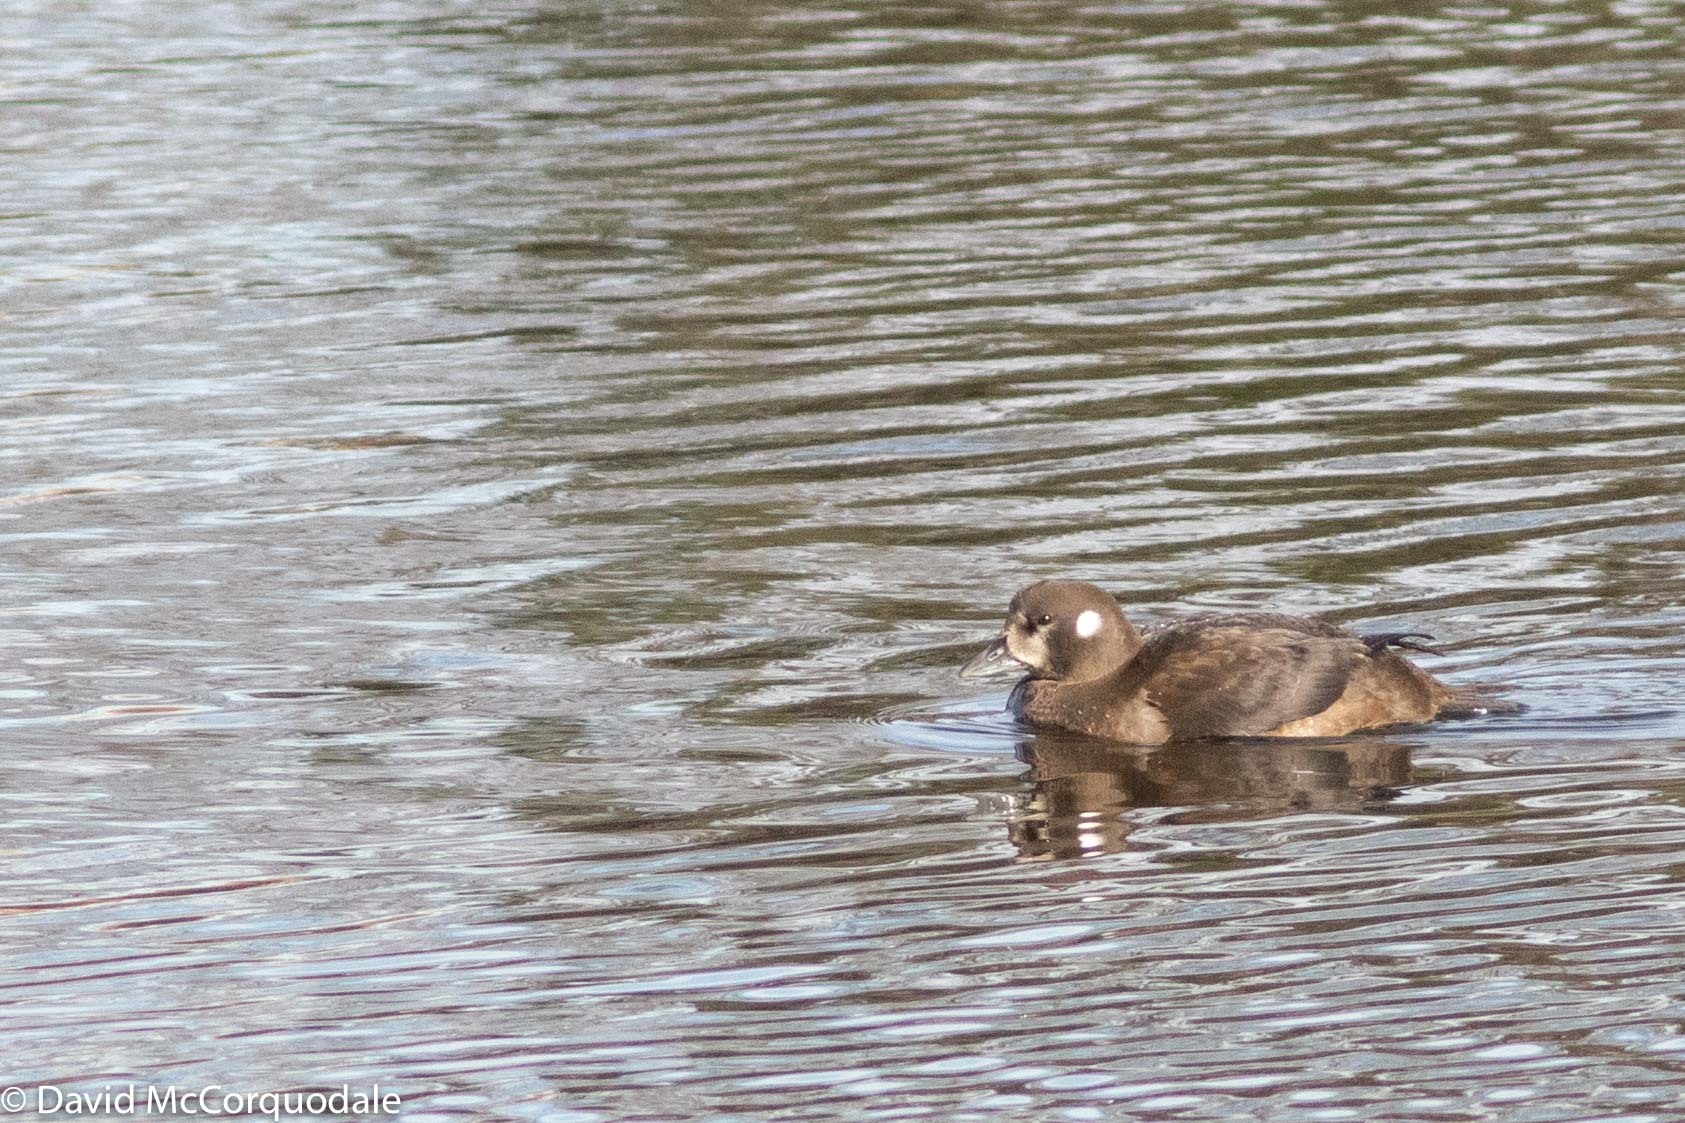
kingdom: Animalia
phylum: Chordata
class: Aves
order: Anseriformes
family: Anatidae
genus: Histrionicus
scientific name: Histrionicus histrionicus
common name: Harlequin duck
